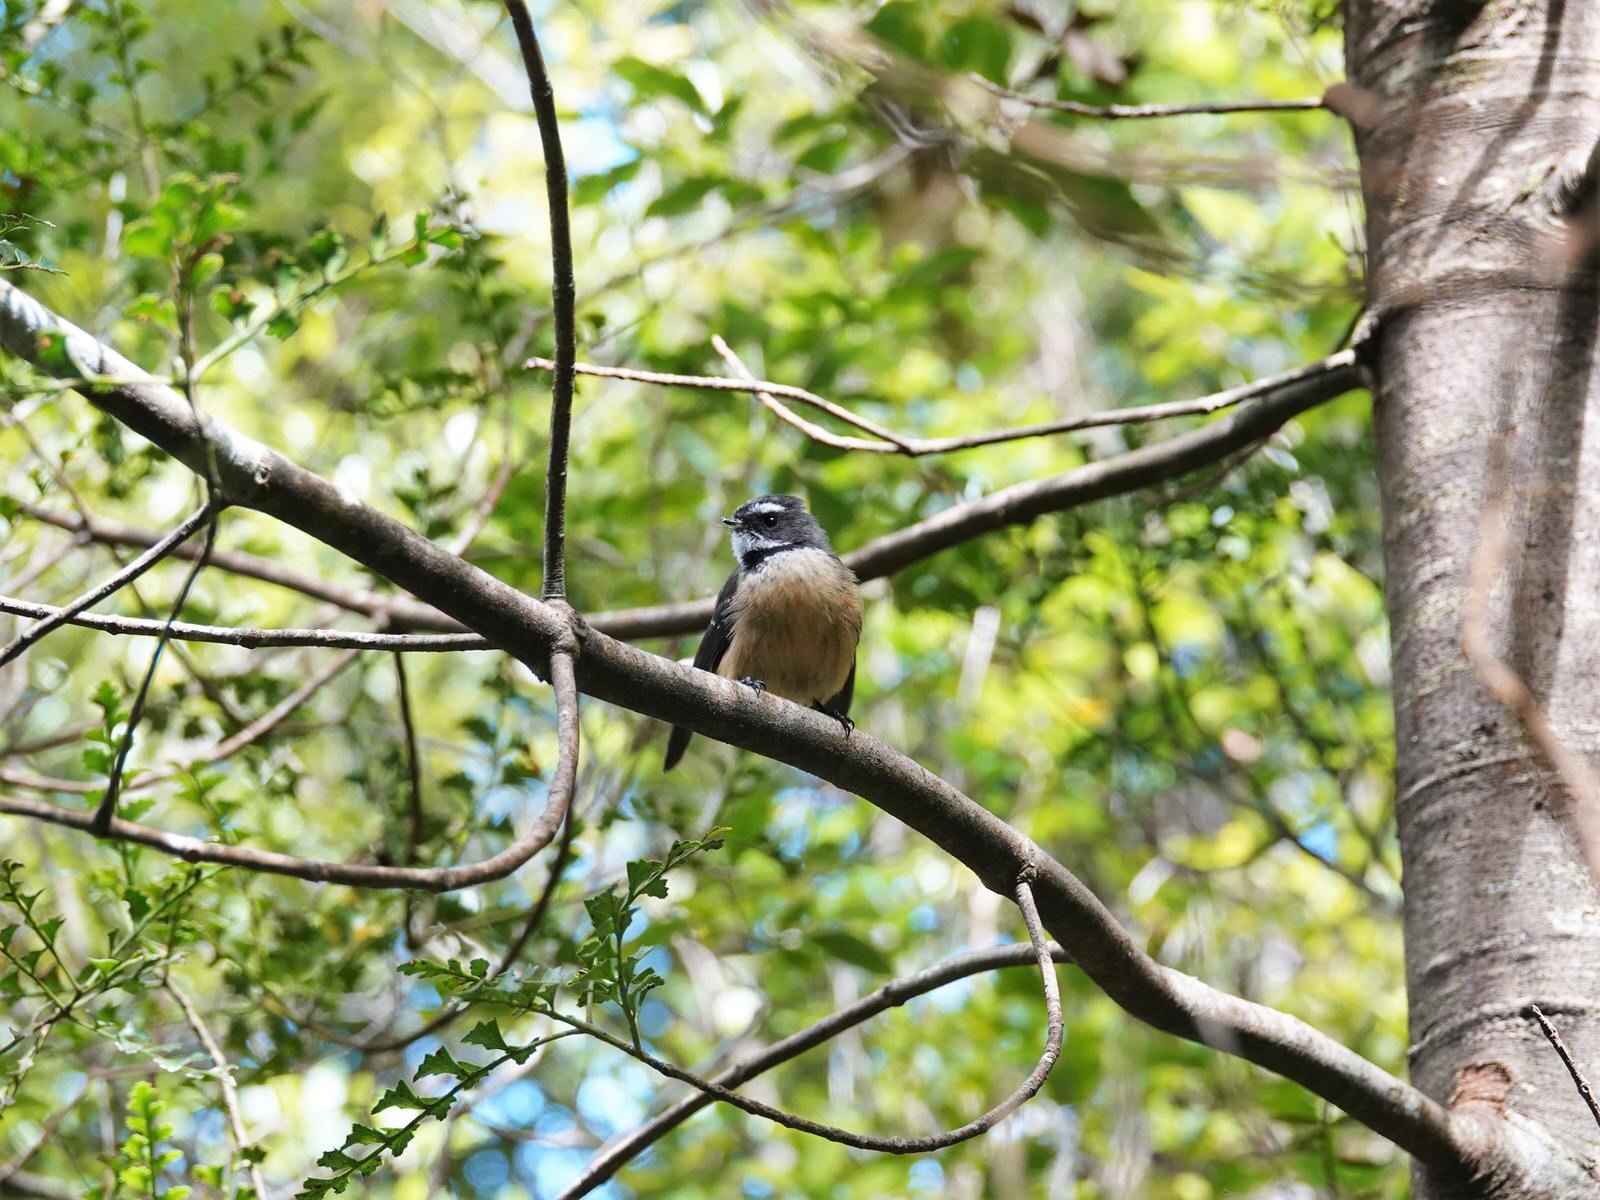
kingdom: Animalia
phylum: Chordata
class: Aves
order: Passeriformes
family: Rhipiduridae
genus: Rhipidura
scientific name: Rhipidura fuliginosa
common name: New zealand fantail
